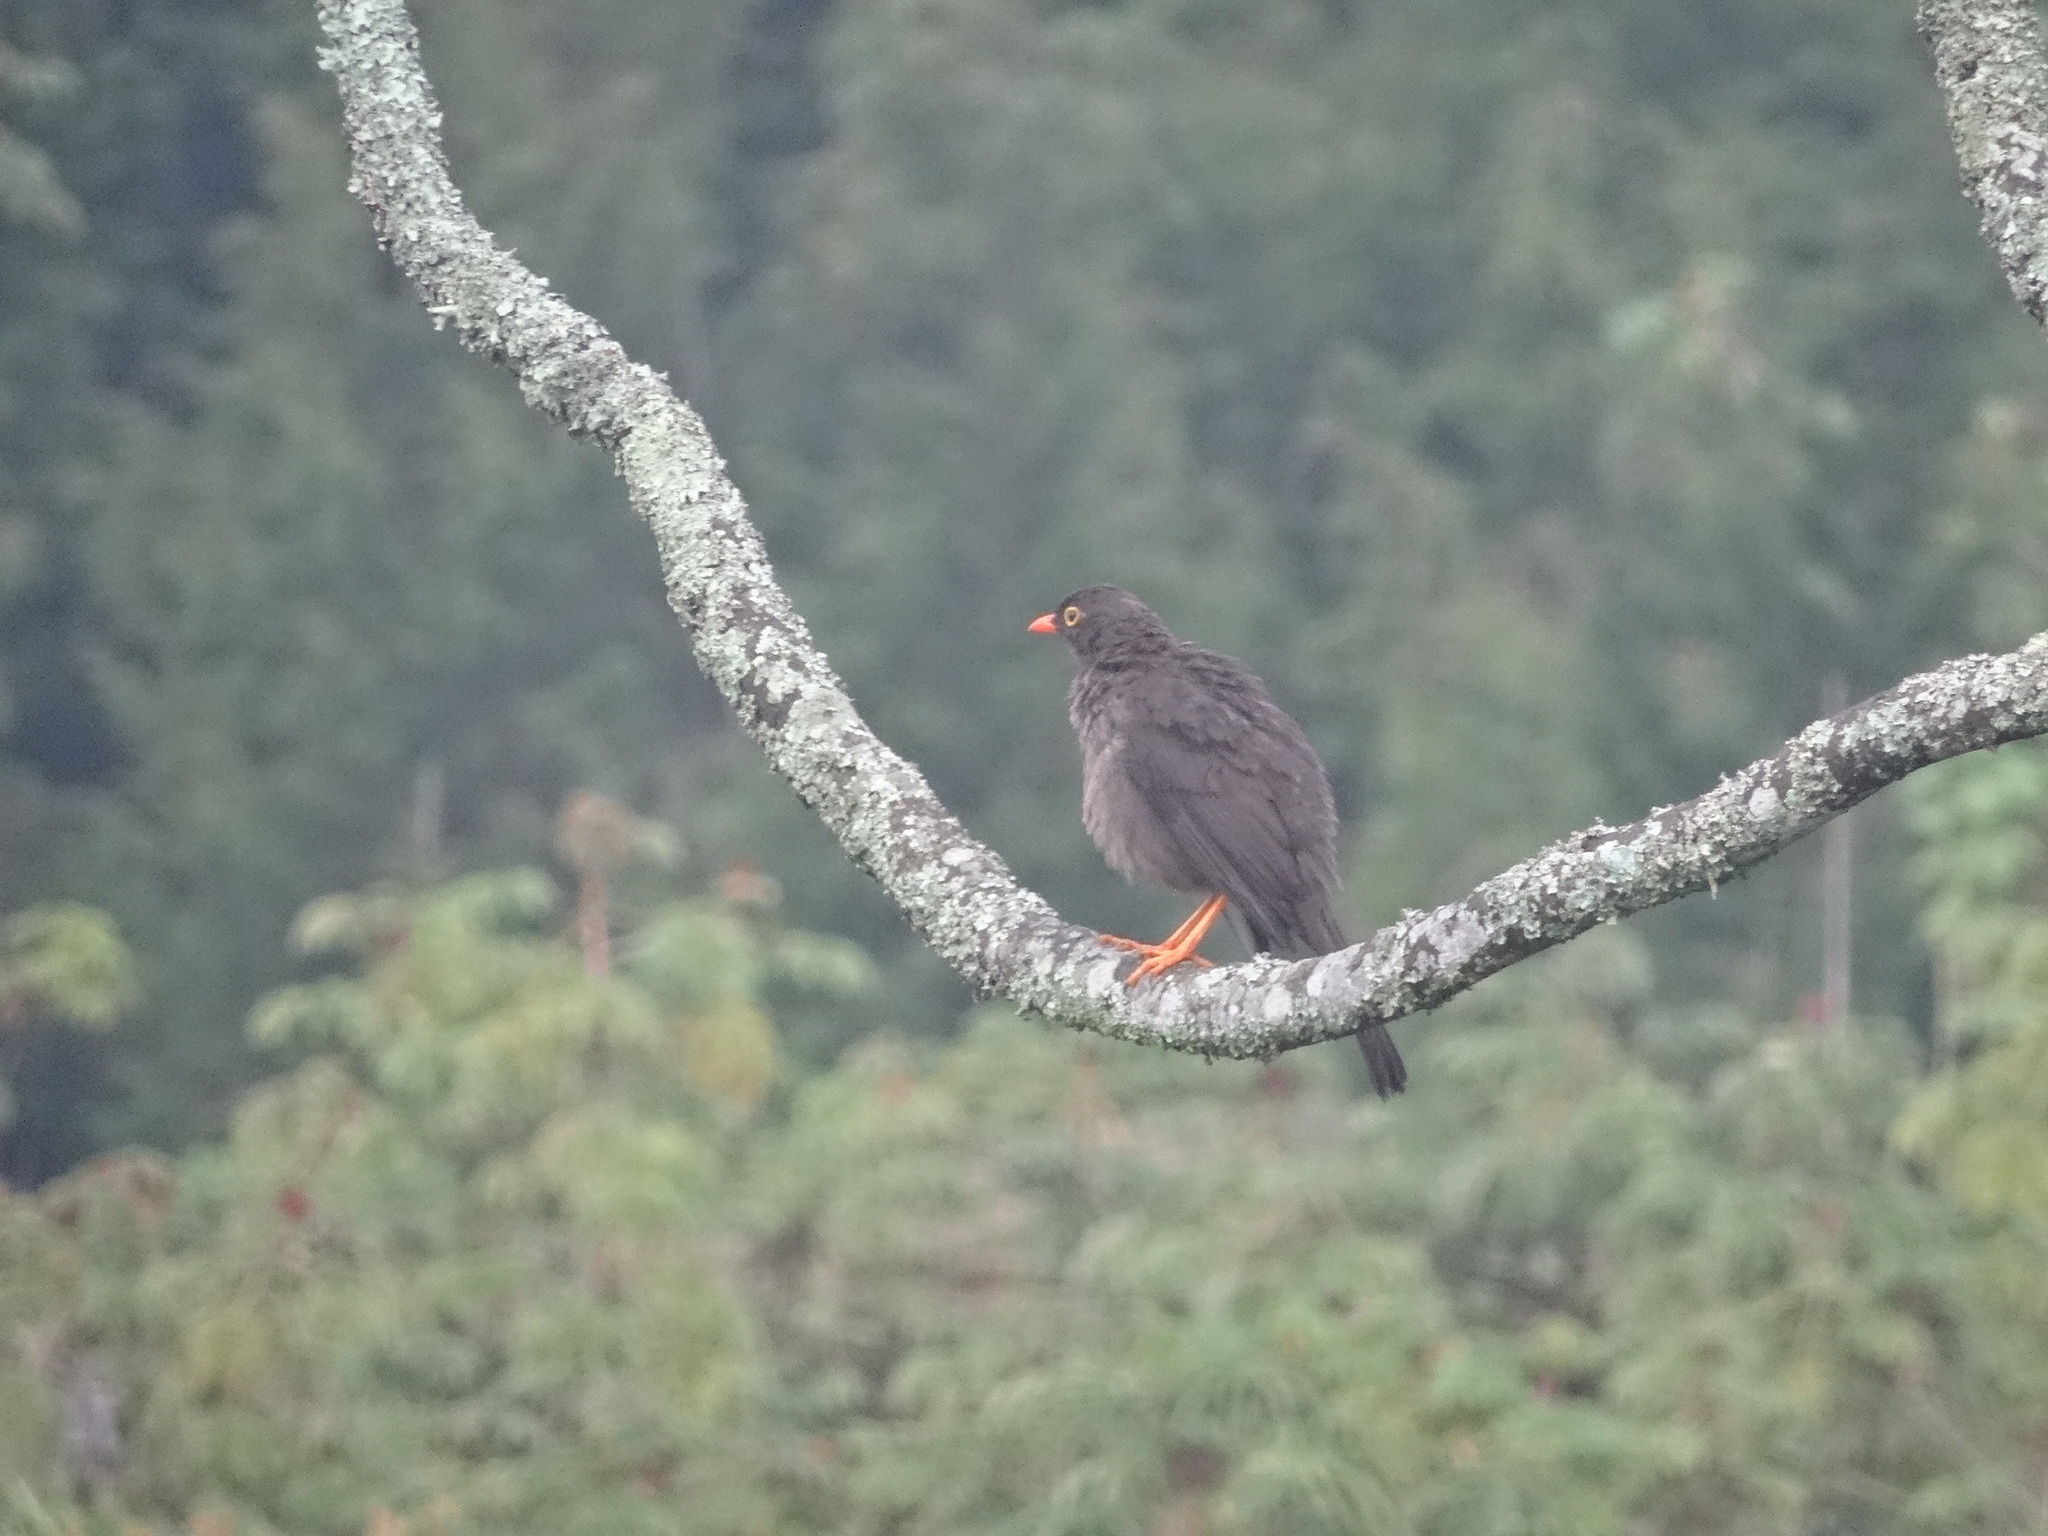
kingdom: Animalia
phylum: Chordata
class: Aves
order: Passeriformes
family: Turdidae
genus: Turdus
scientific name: Turdus fuscater
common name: Great thrush
